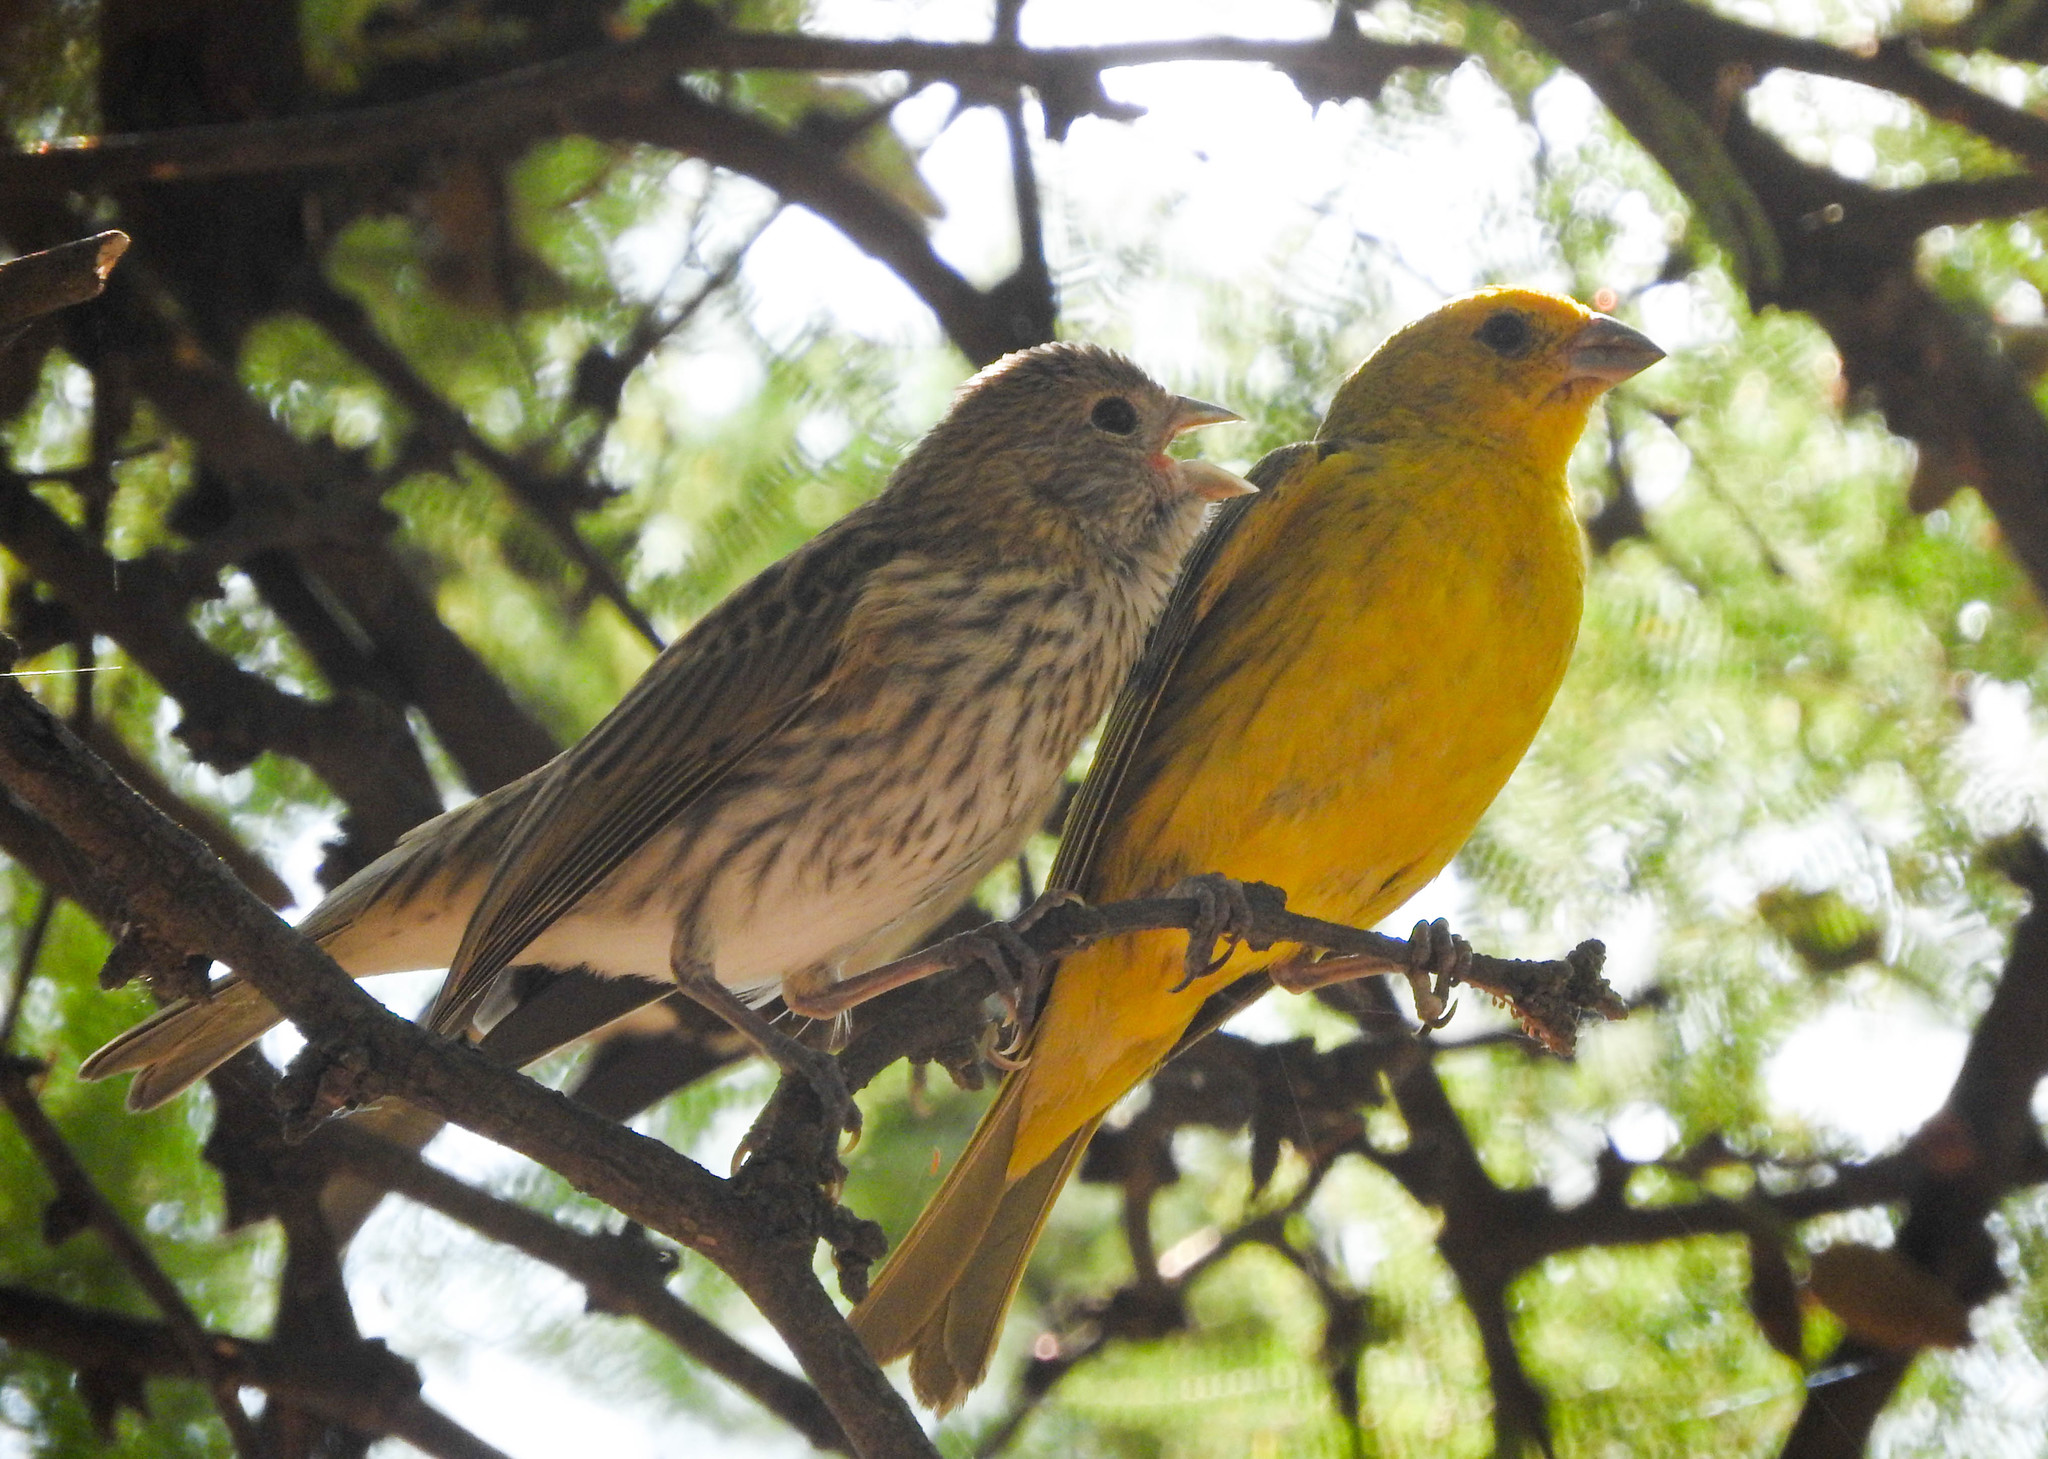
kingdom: Animalia
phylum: Chordata
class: Aves
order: Passeriformes
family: Thraupidae
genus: Sicalis
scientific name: Sicalis flaveola
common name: Saffron finch
